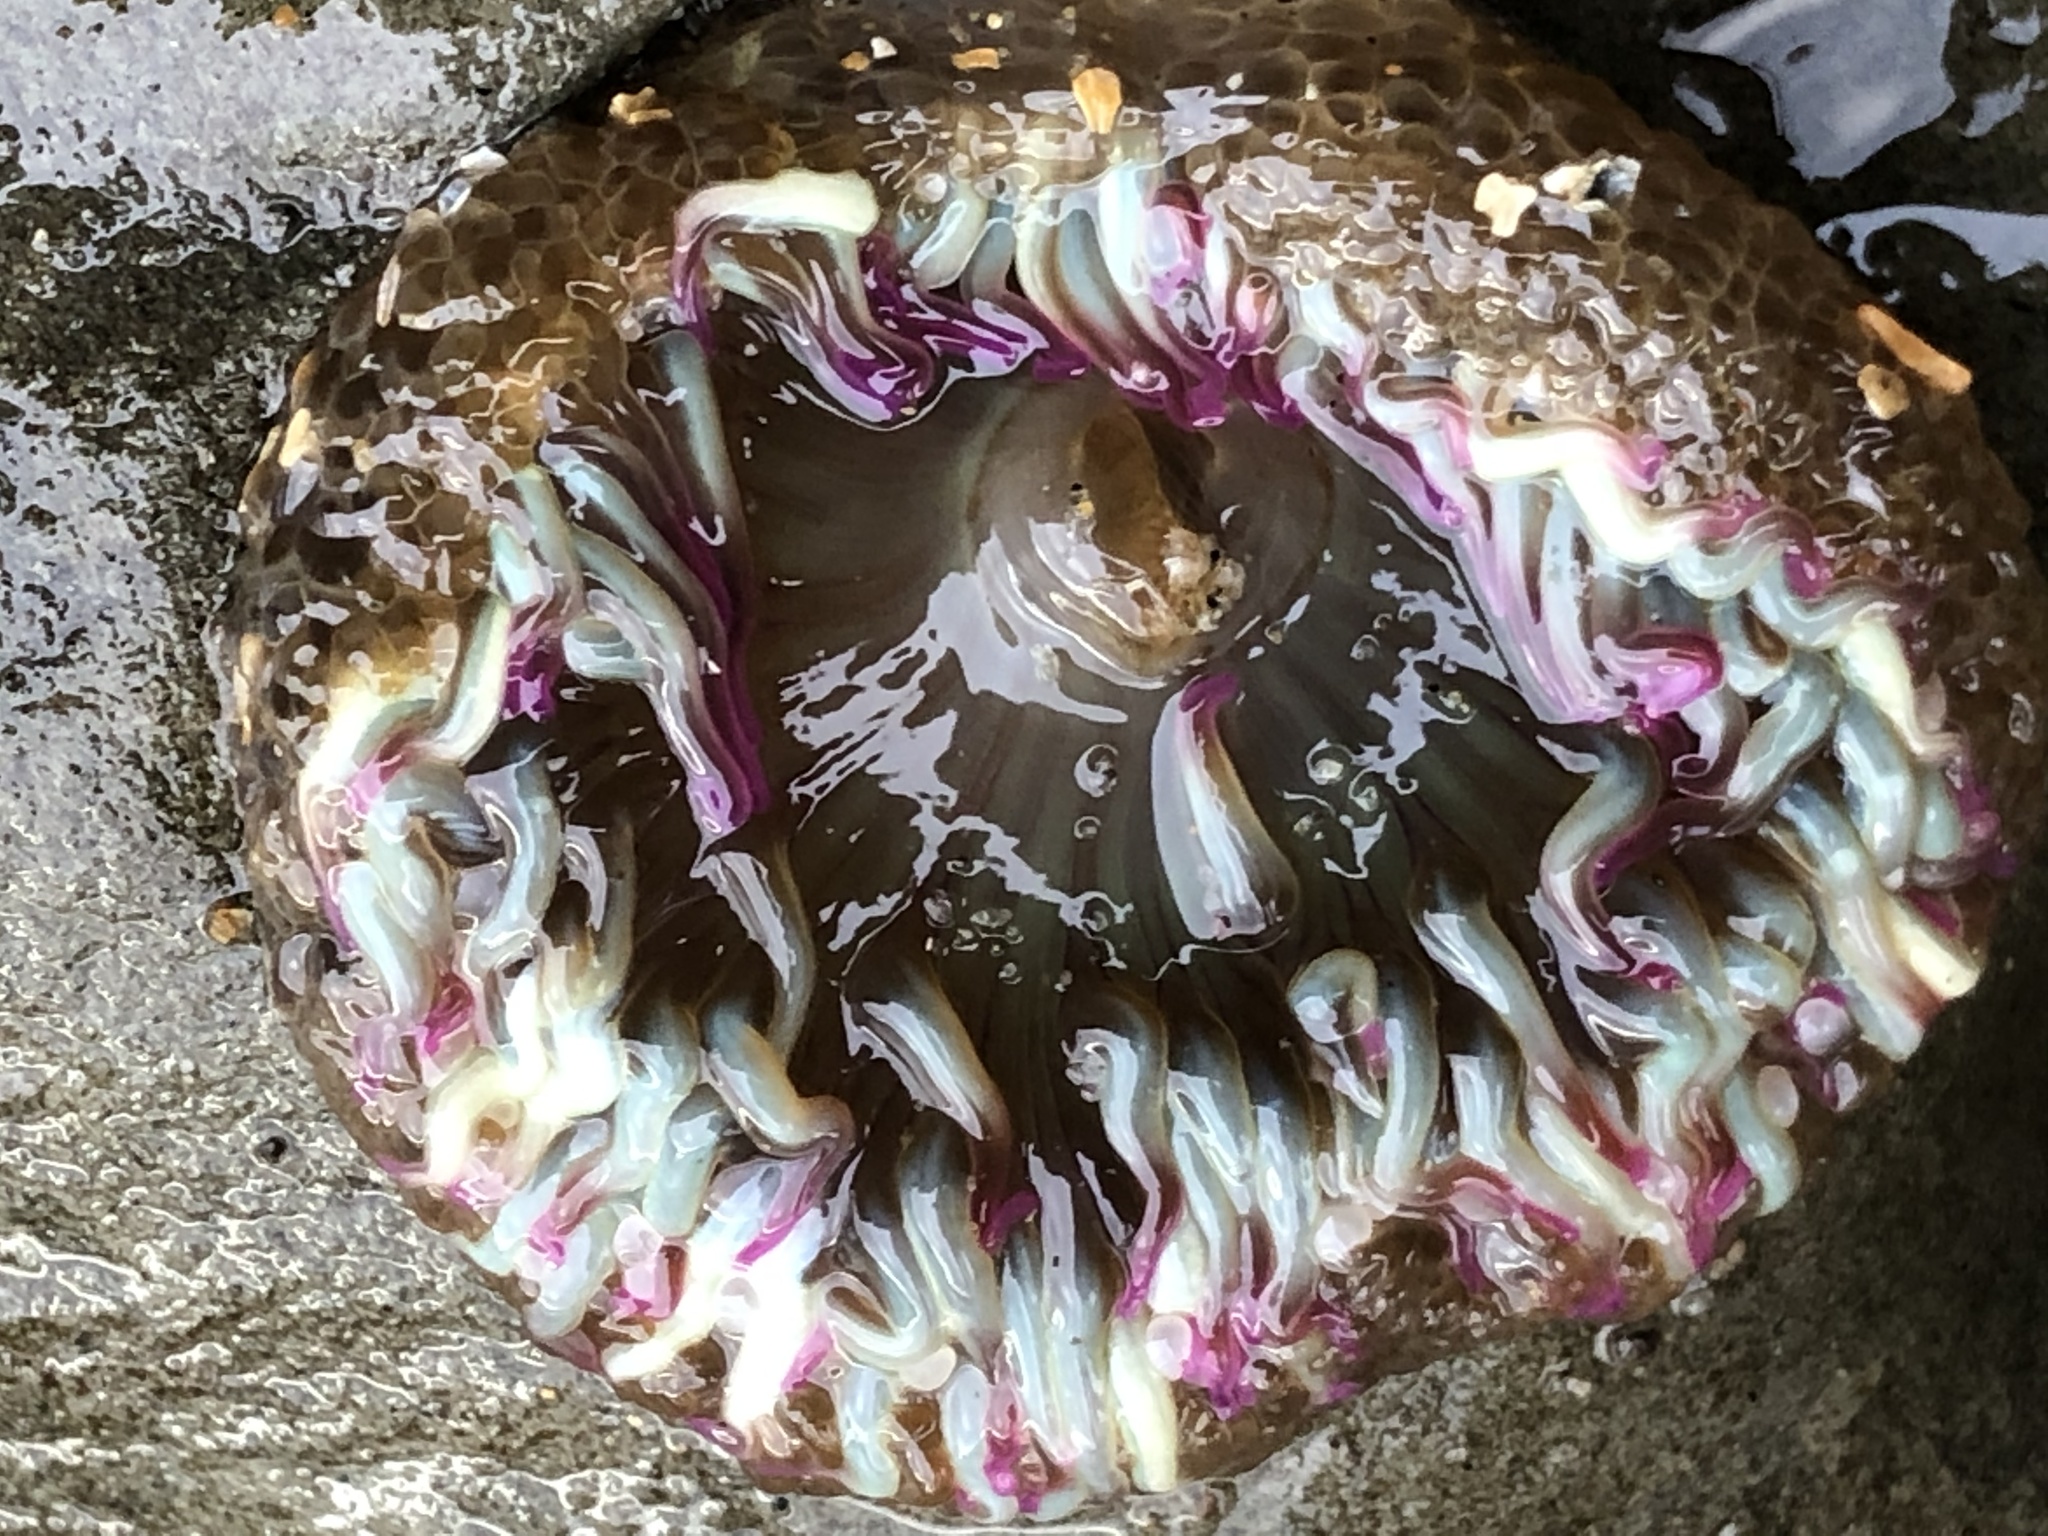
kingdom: Animalia
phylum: Cnidaria
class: Anthozoa
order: Actiniaria
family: Actiniidae
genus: Anthopleura
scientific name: Anthopleura elegantissima
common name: Clonal anemone
